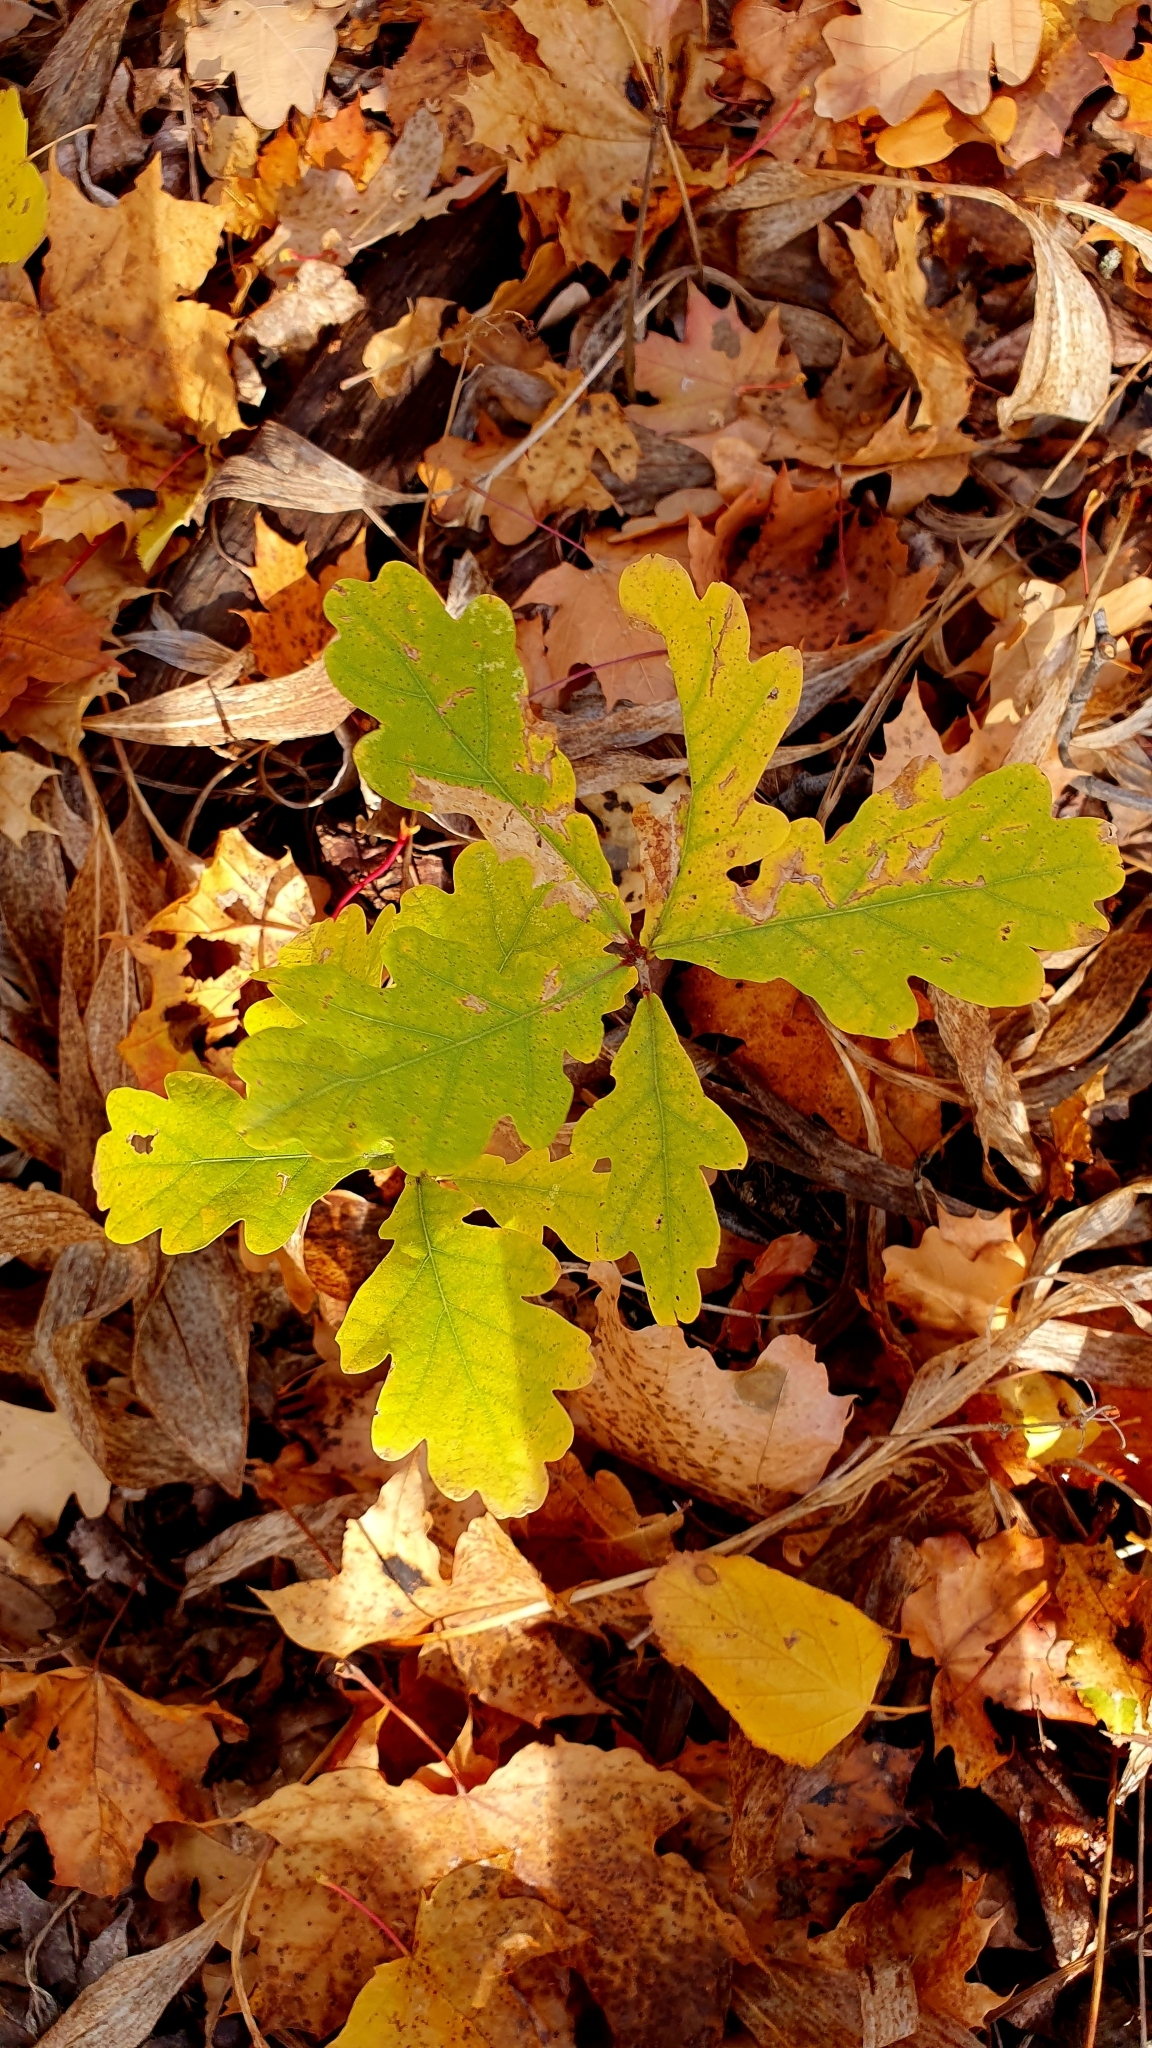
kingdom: Plantae
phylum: Tracheophyta
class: Magnoliopsida
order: Fagales
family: Fagaceae
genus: Quercus
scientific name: Quercus robur
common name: Pedunculate oak
